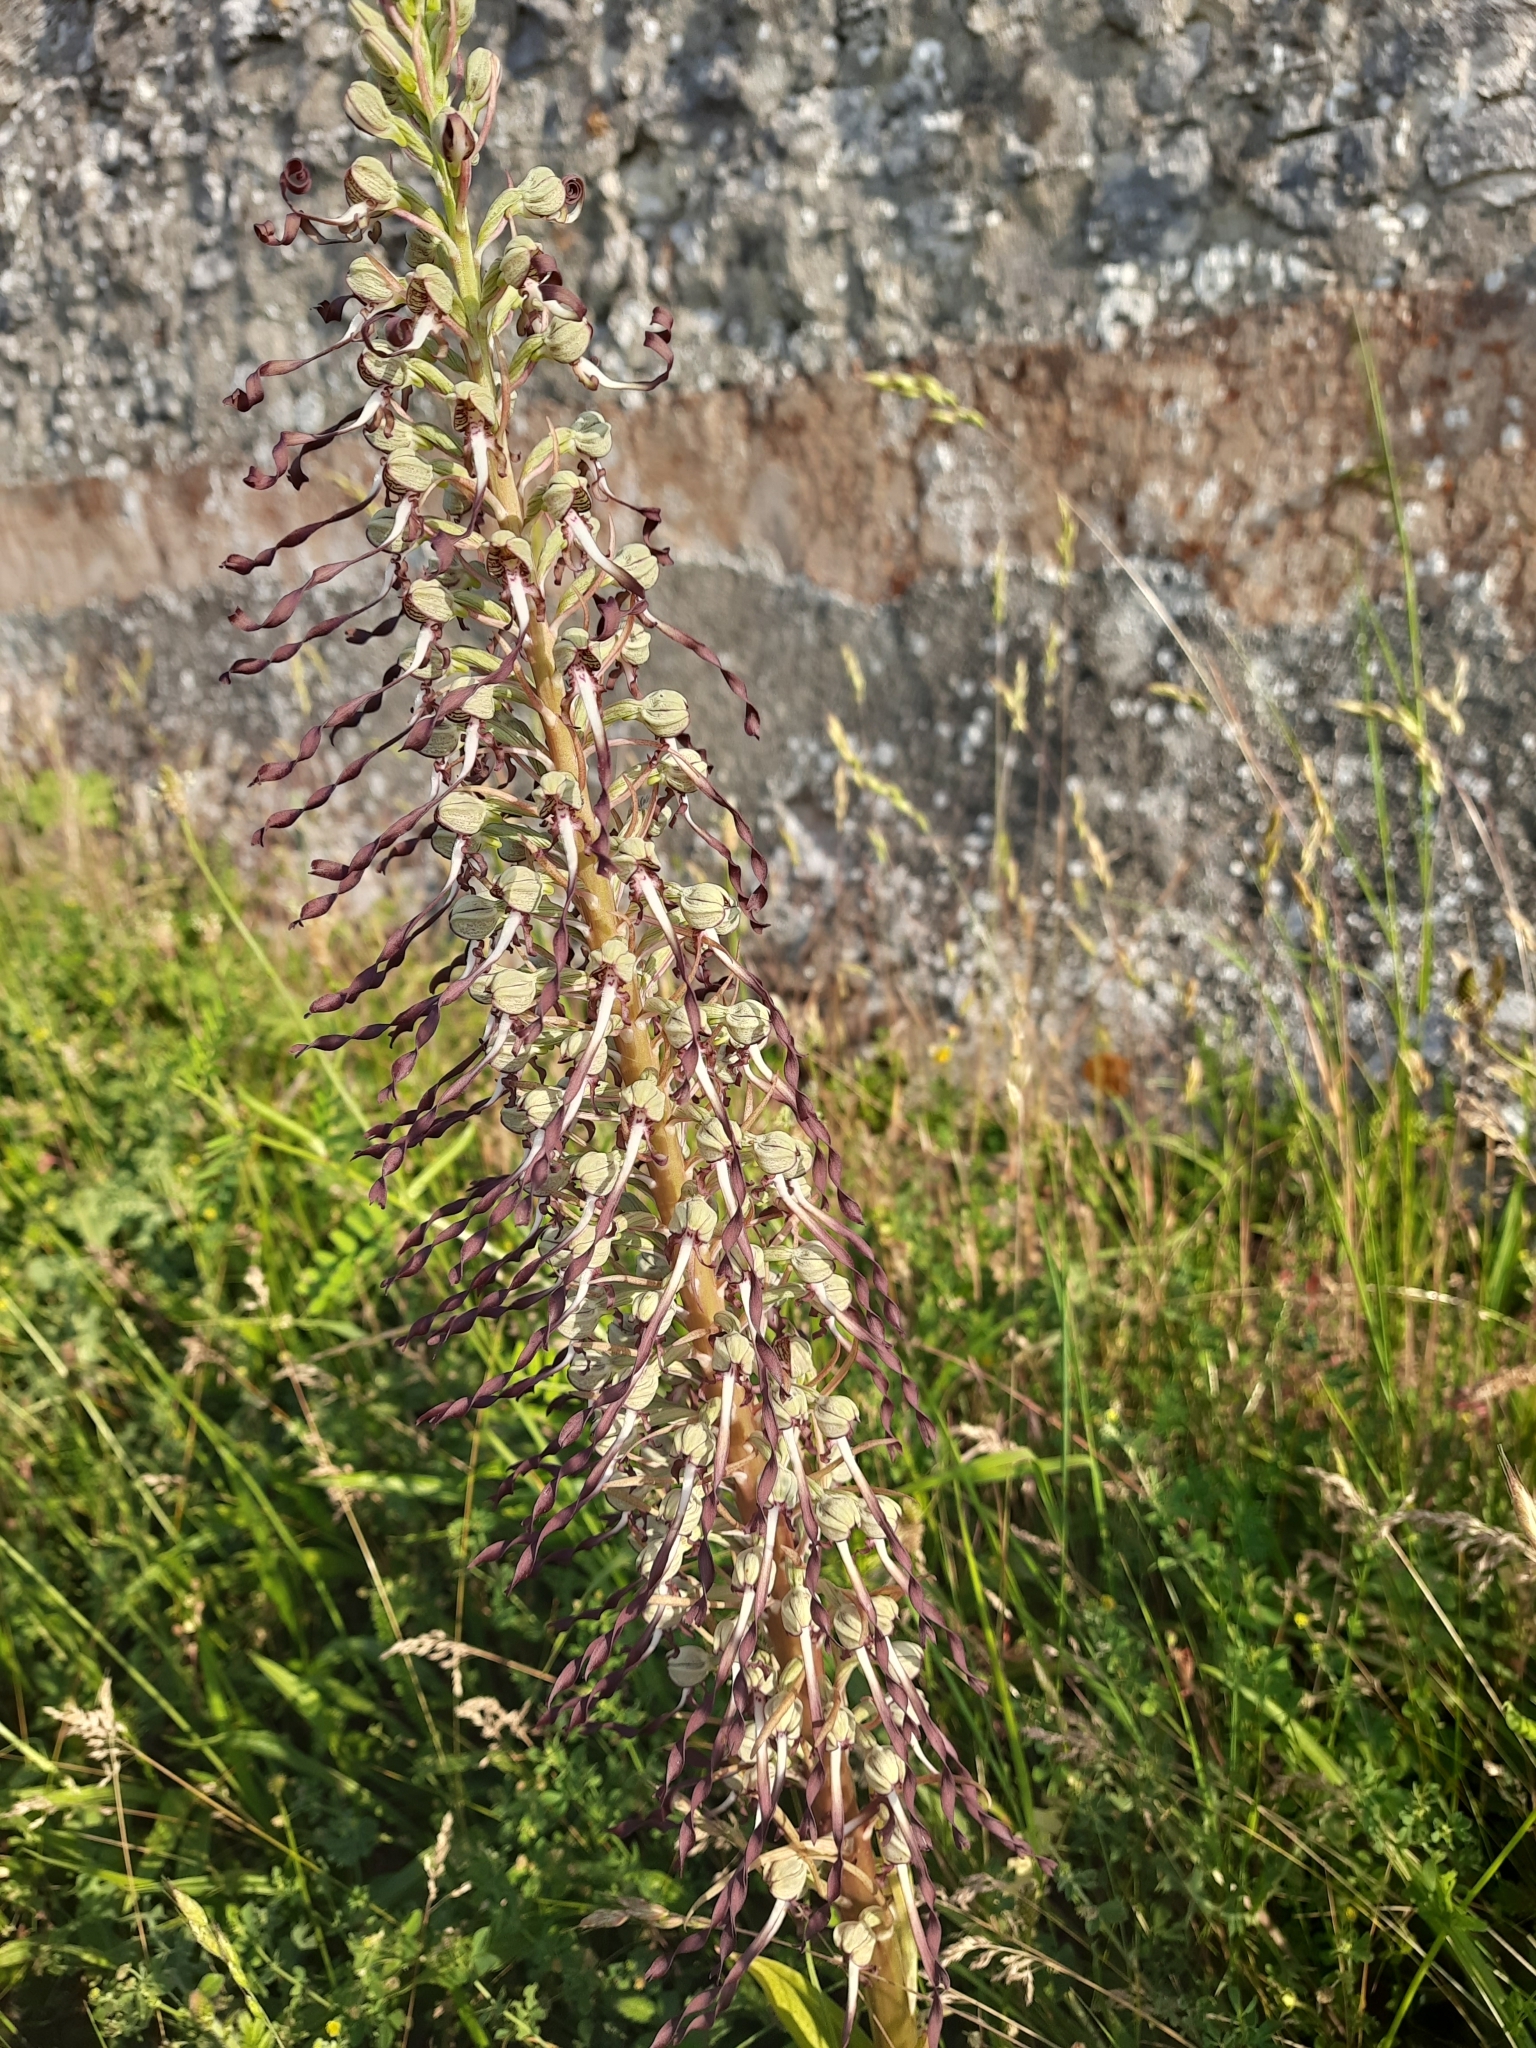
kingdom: Plantae
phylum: Tracheophyta
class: Liliopsida
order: Asparagales
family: Orchidaceae
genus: Himantoglossum
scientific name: Himantoglossum hircinum
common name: Lizard orchid
